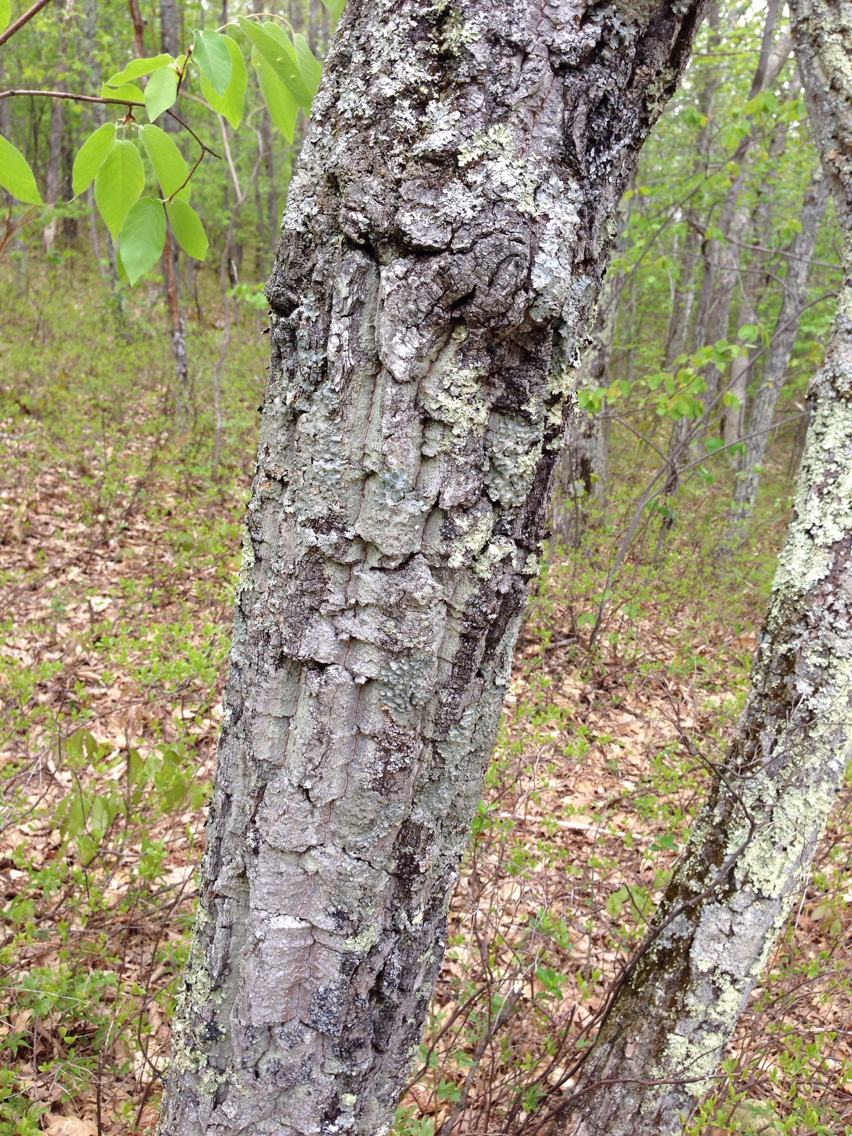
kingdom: Plantae
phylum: Tracheophyta
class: Magnoliopsida
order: Fagales
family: Fagaceae
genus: Quercus
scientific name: Quercus montana
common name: Chestnut oak
